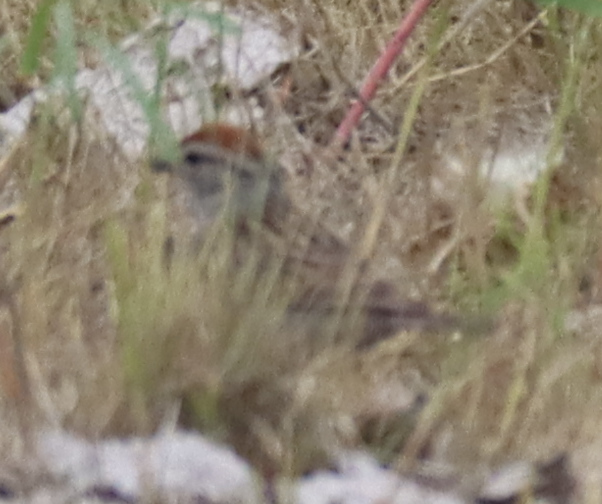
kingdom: Animalia
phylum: Chordata
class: Aves
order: Passeriformes
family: Passerellidae
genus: Spizella
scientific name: Spizella passerina
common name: Chipping sparrow
